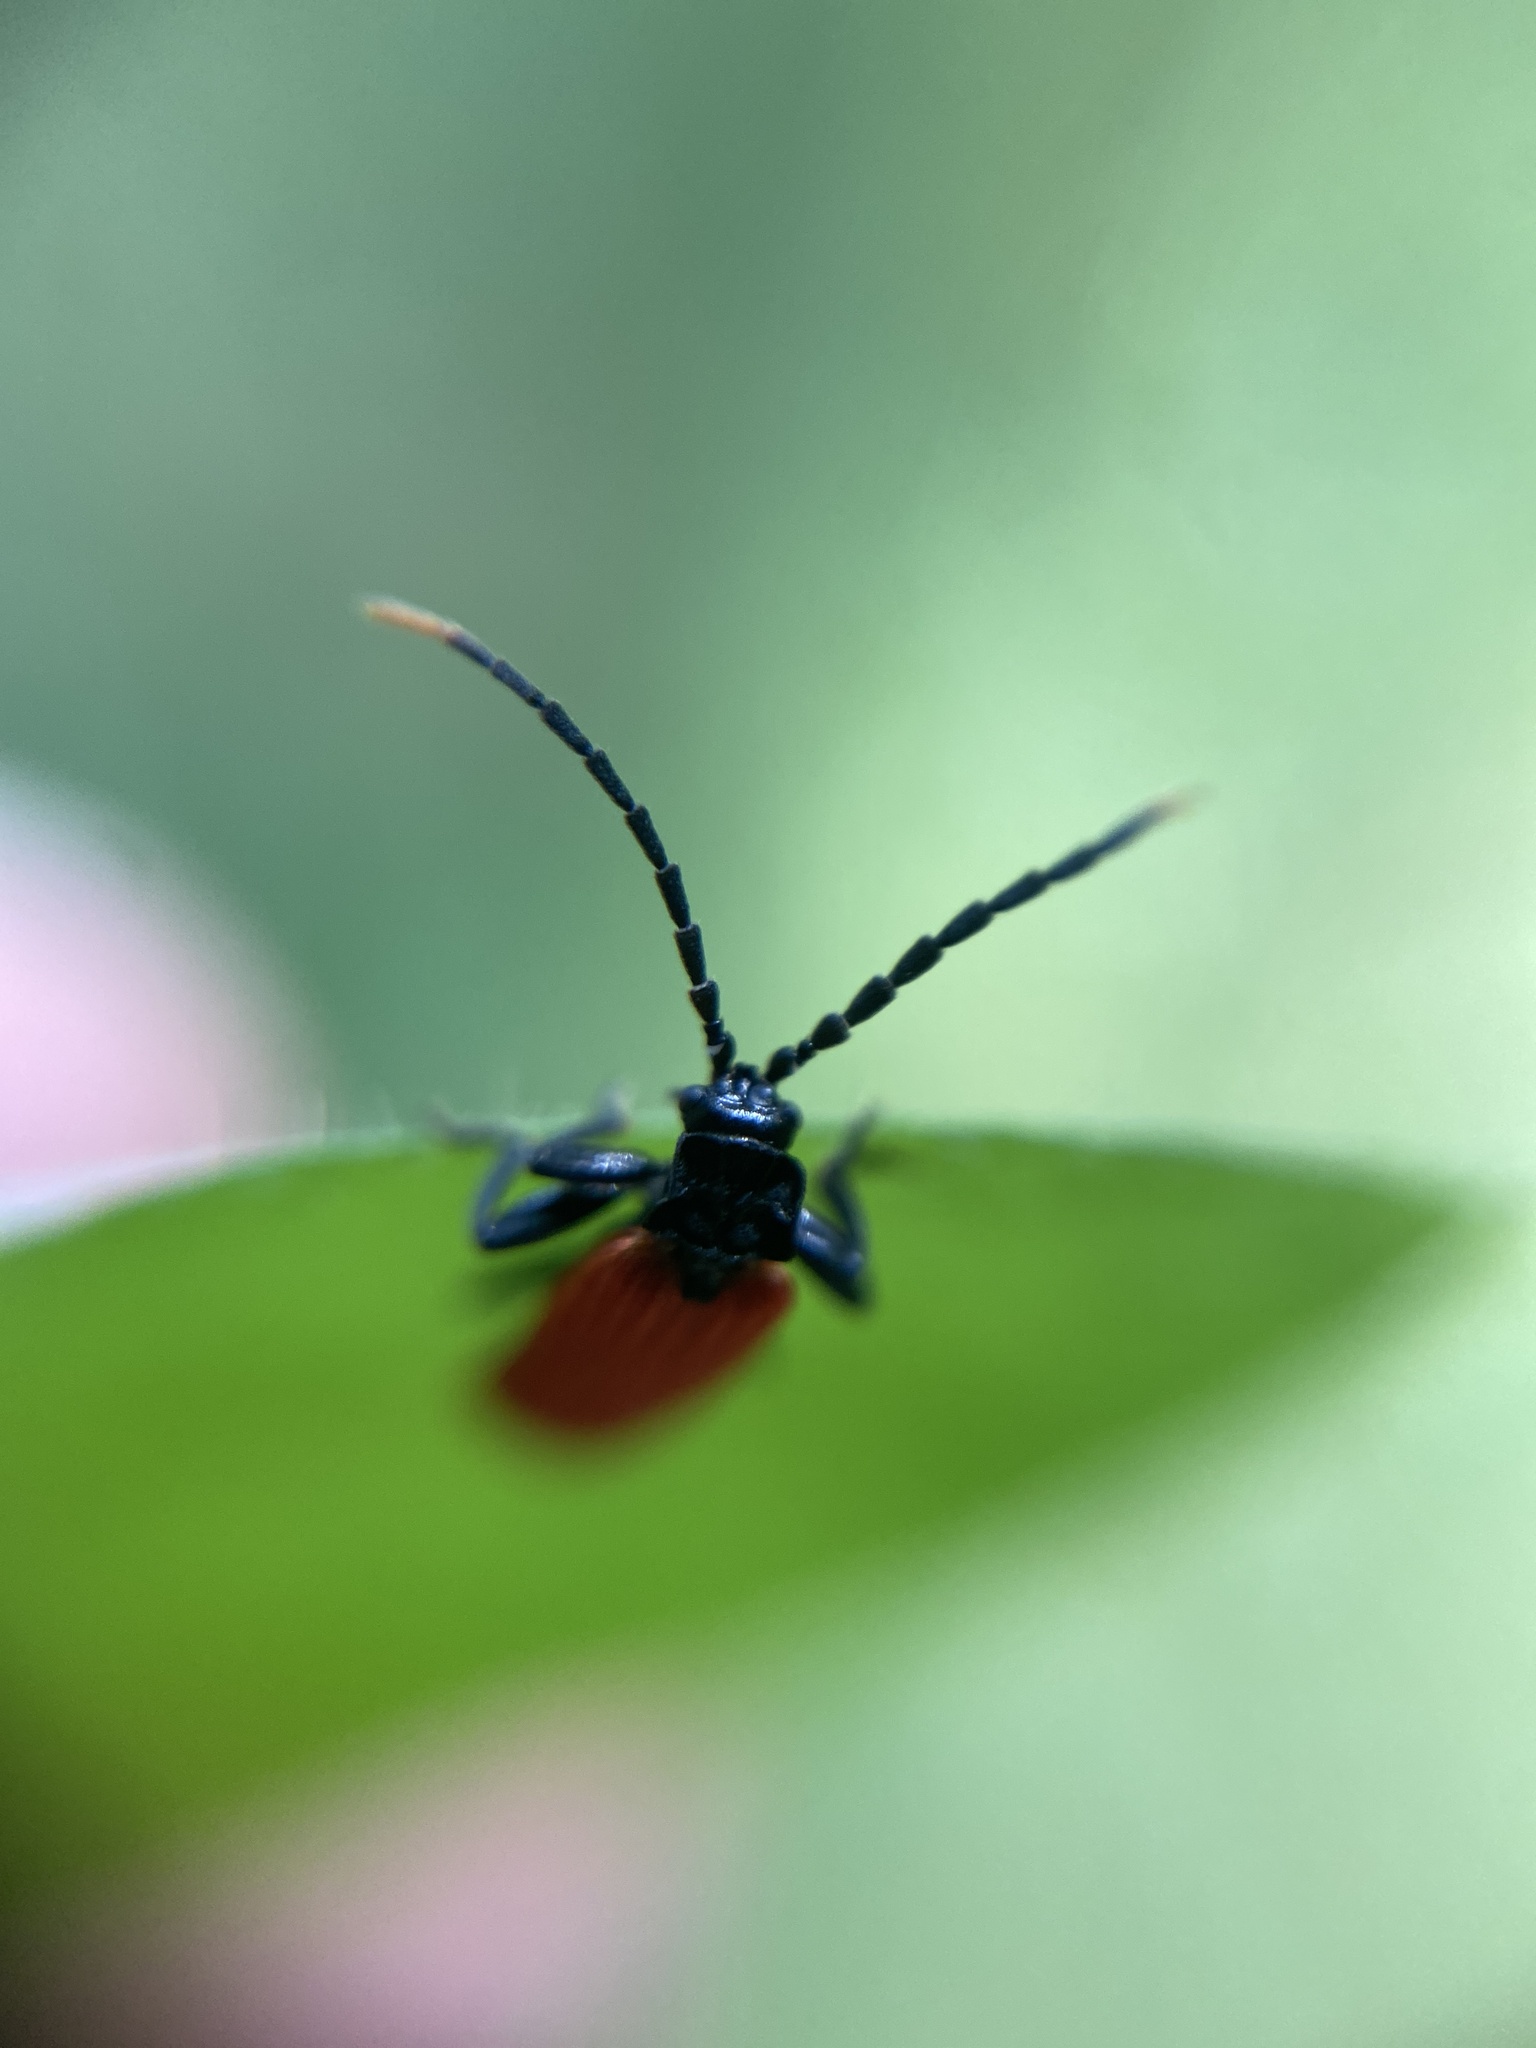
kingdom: Animalia
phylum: Arthropoda
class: Insecta
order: Coleoptera
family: Lycidae
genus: Platycis
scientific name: Platycis minutus
